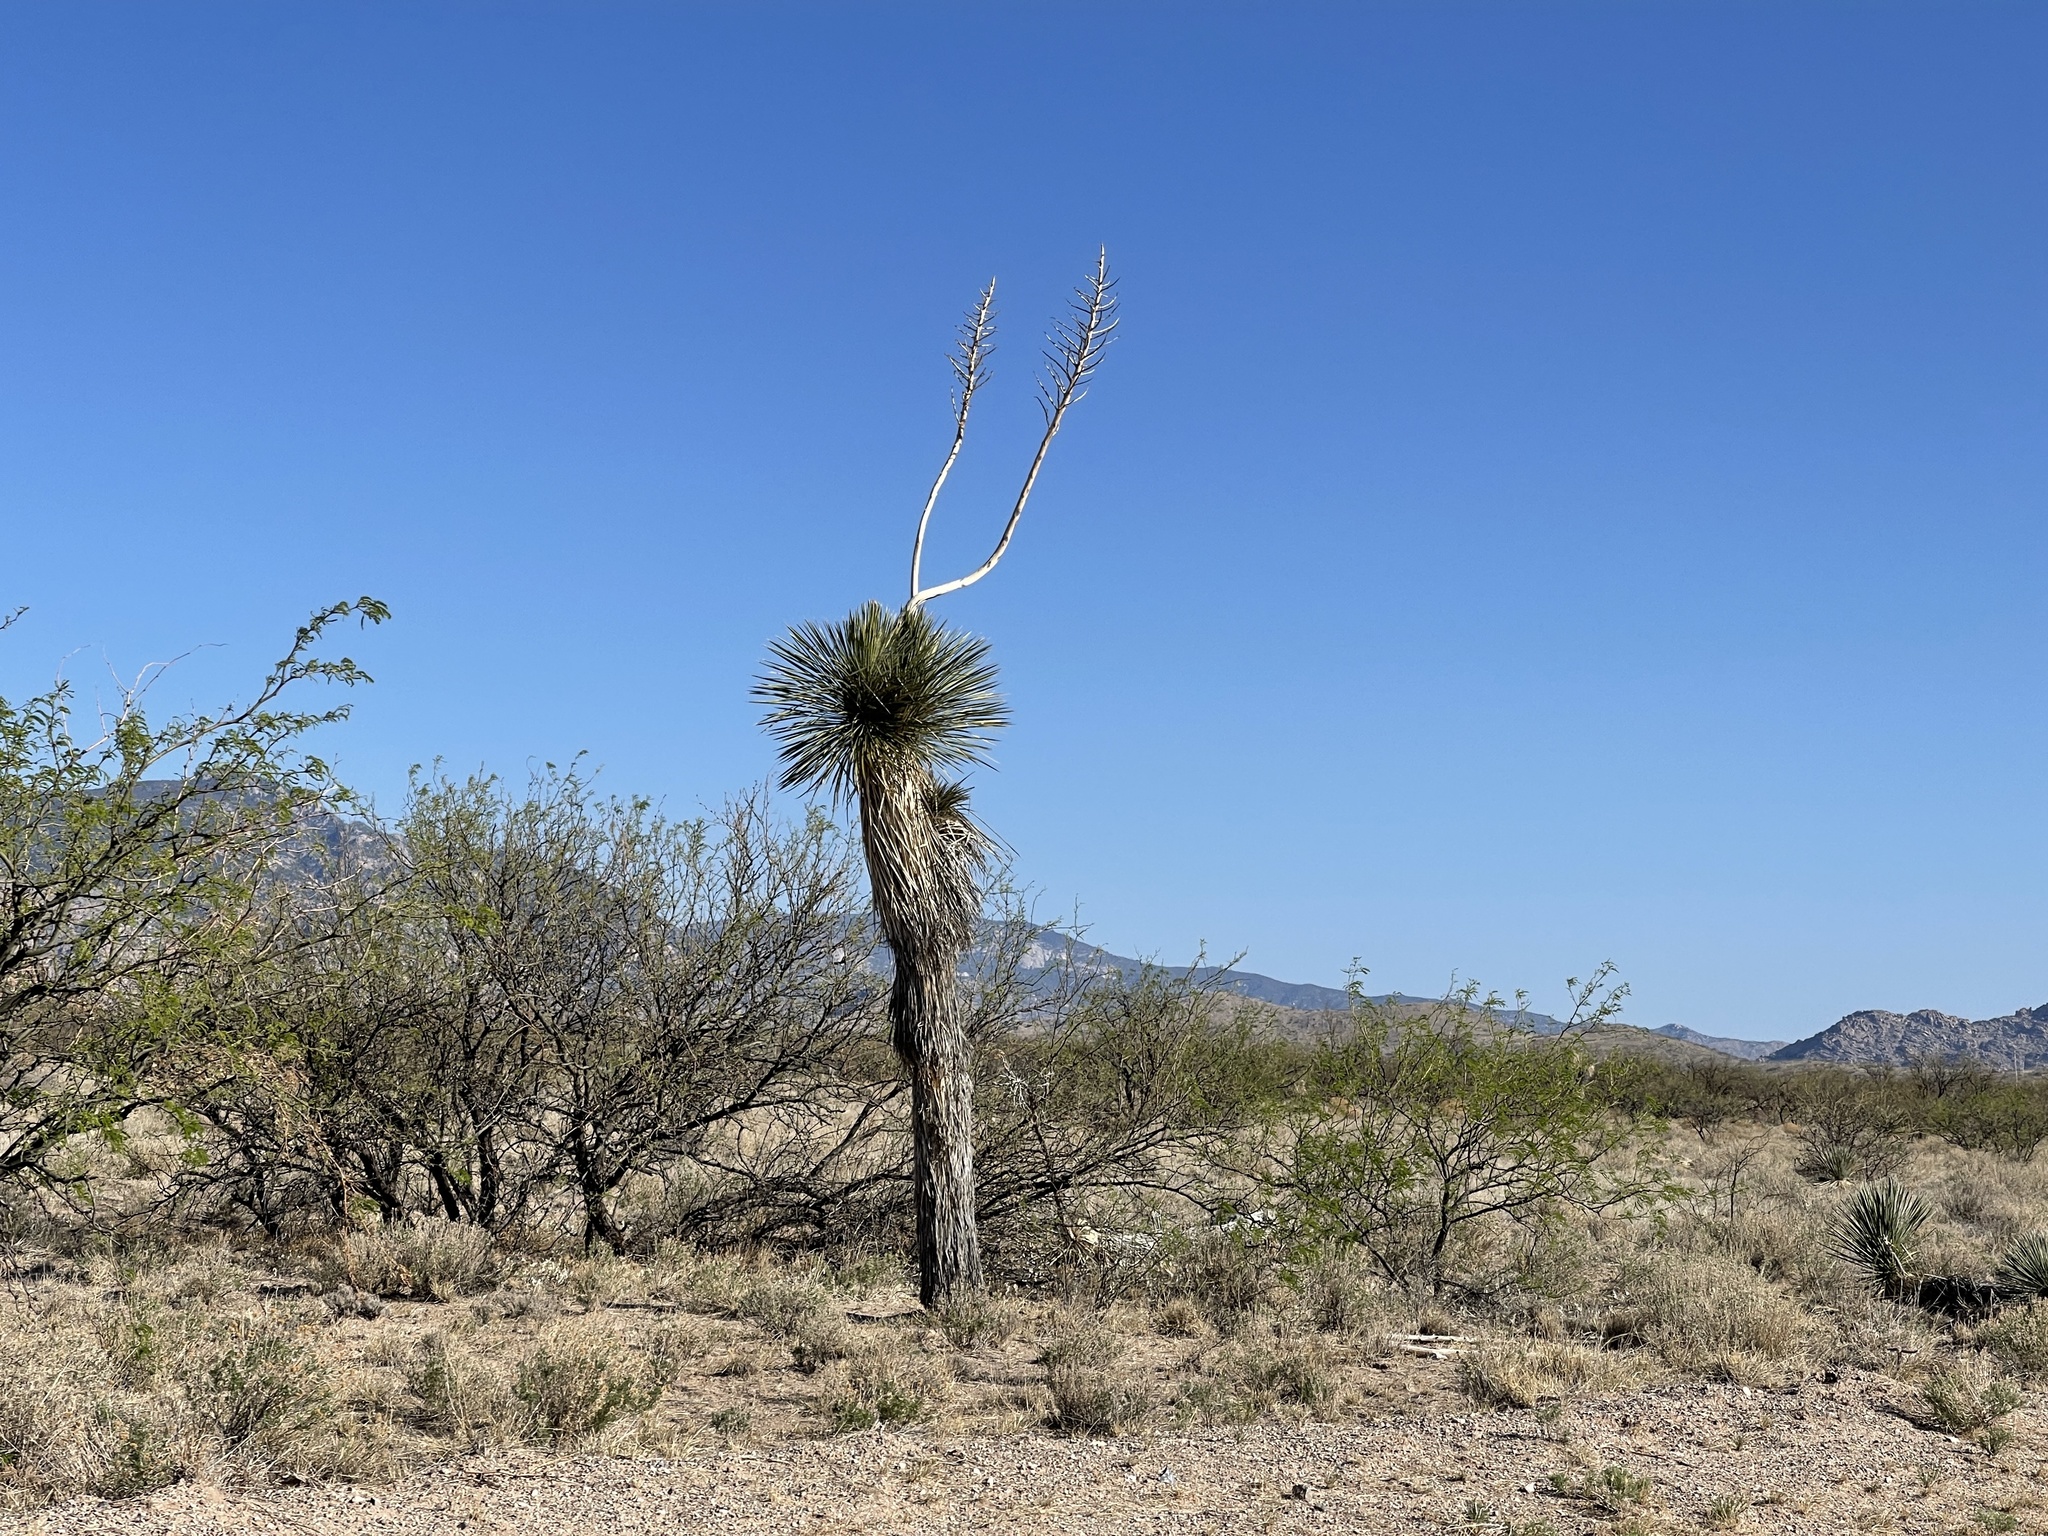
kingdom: Plantae
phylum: Tracheophyta
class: Liliopsida
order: Asparagales
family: Asparagaceae
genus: Yucca
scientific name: Yucca elata
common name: Palmella
